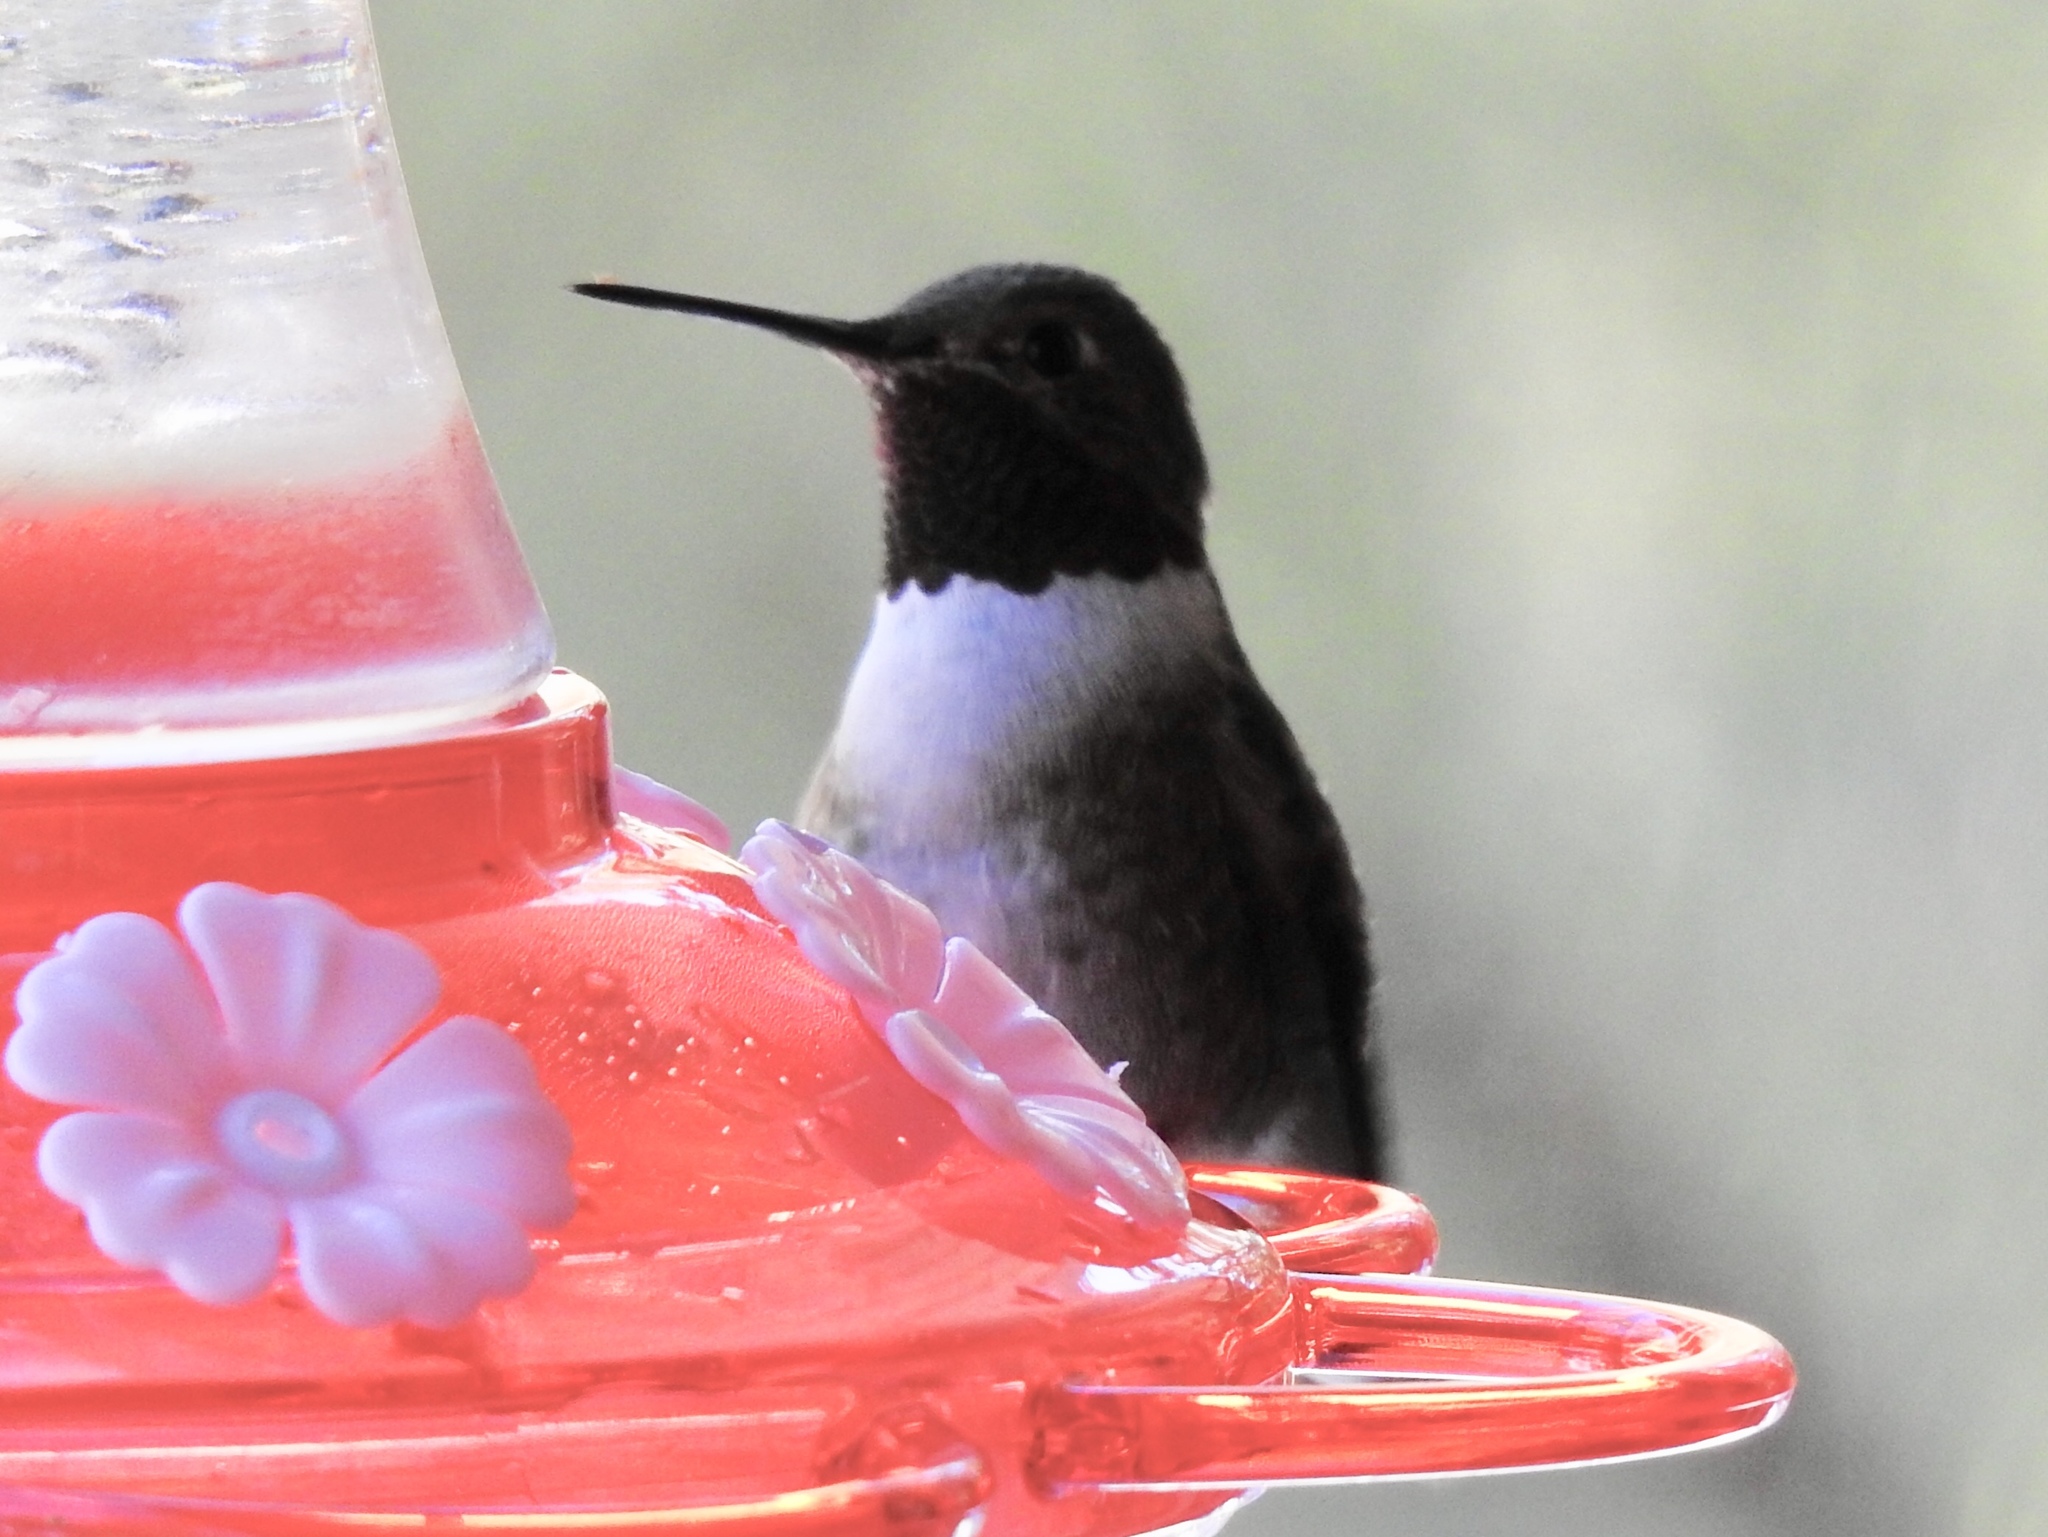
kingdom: Animalia
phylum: Chordata
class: Aves
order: Apodiformes
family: Trochilidae
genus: Archilochus
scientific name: Archilochus alexandri
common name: Black-chinned hummingbird
